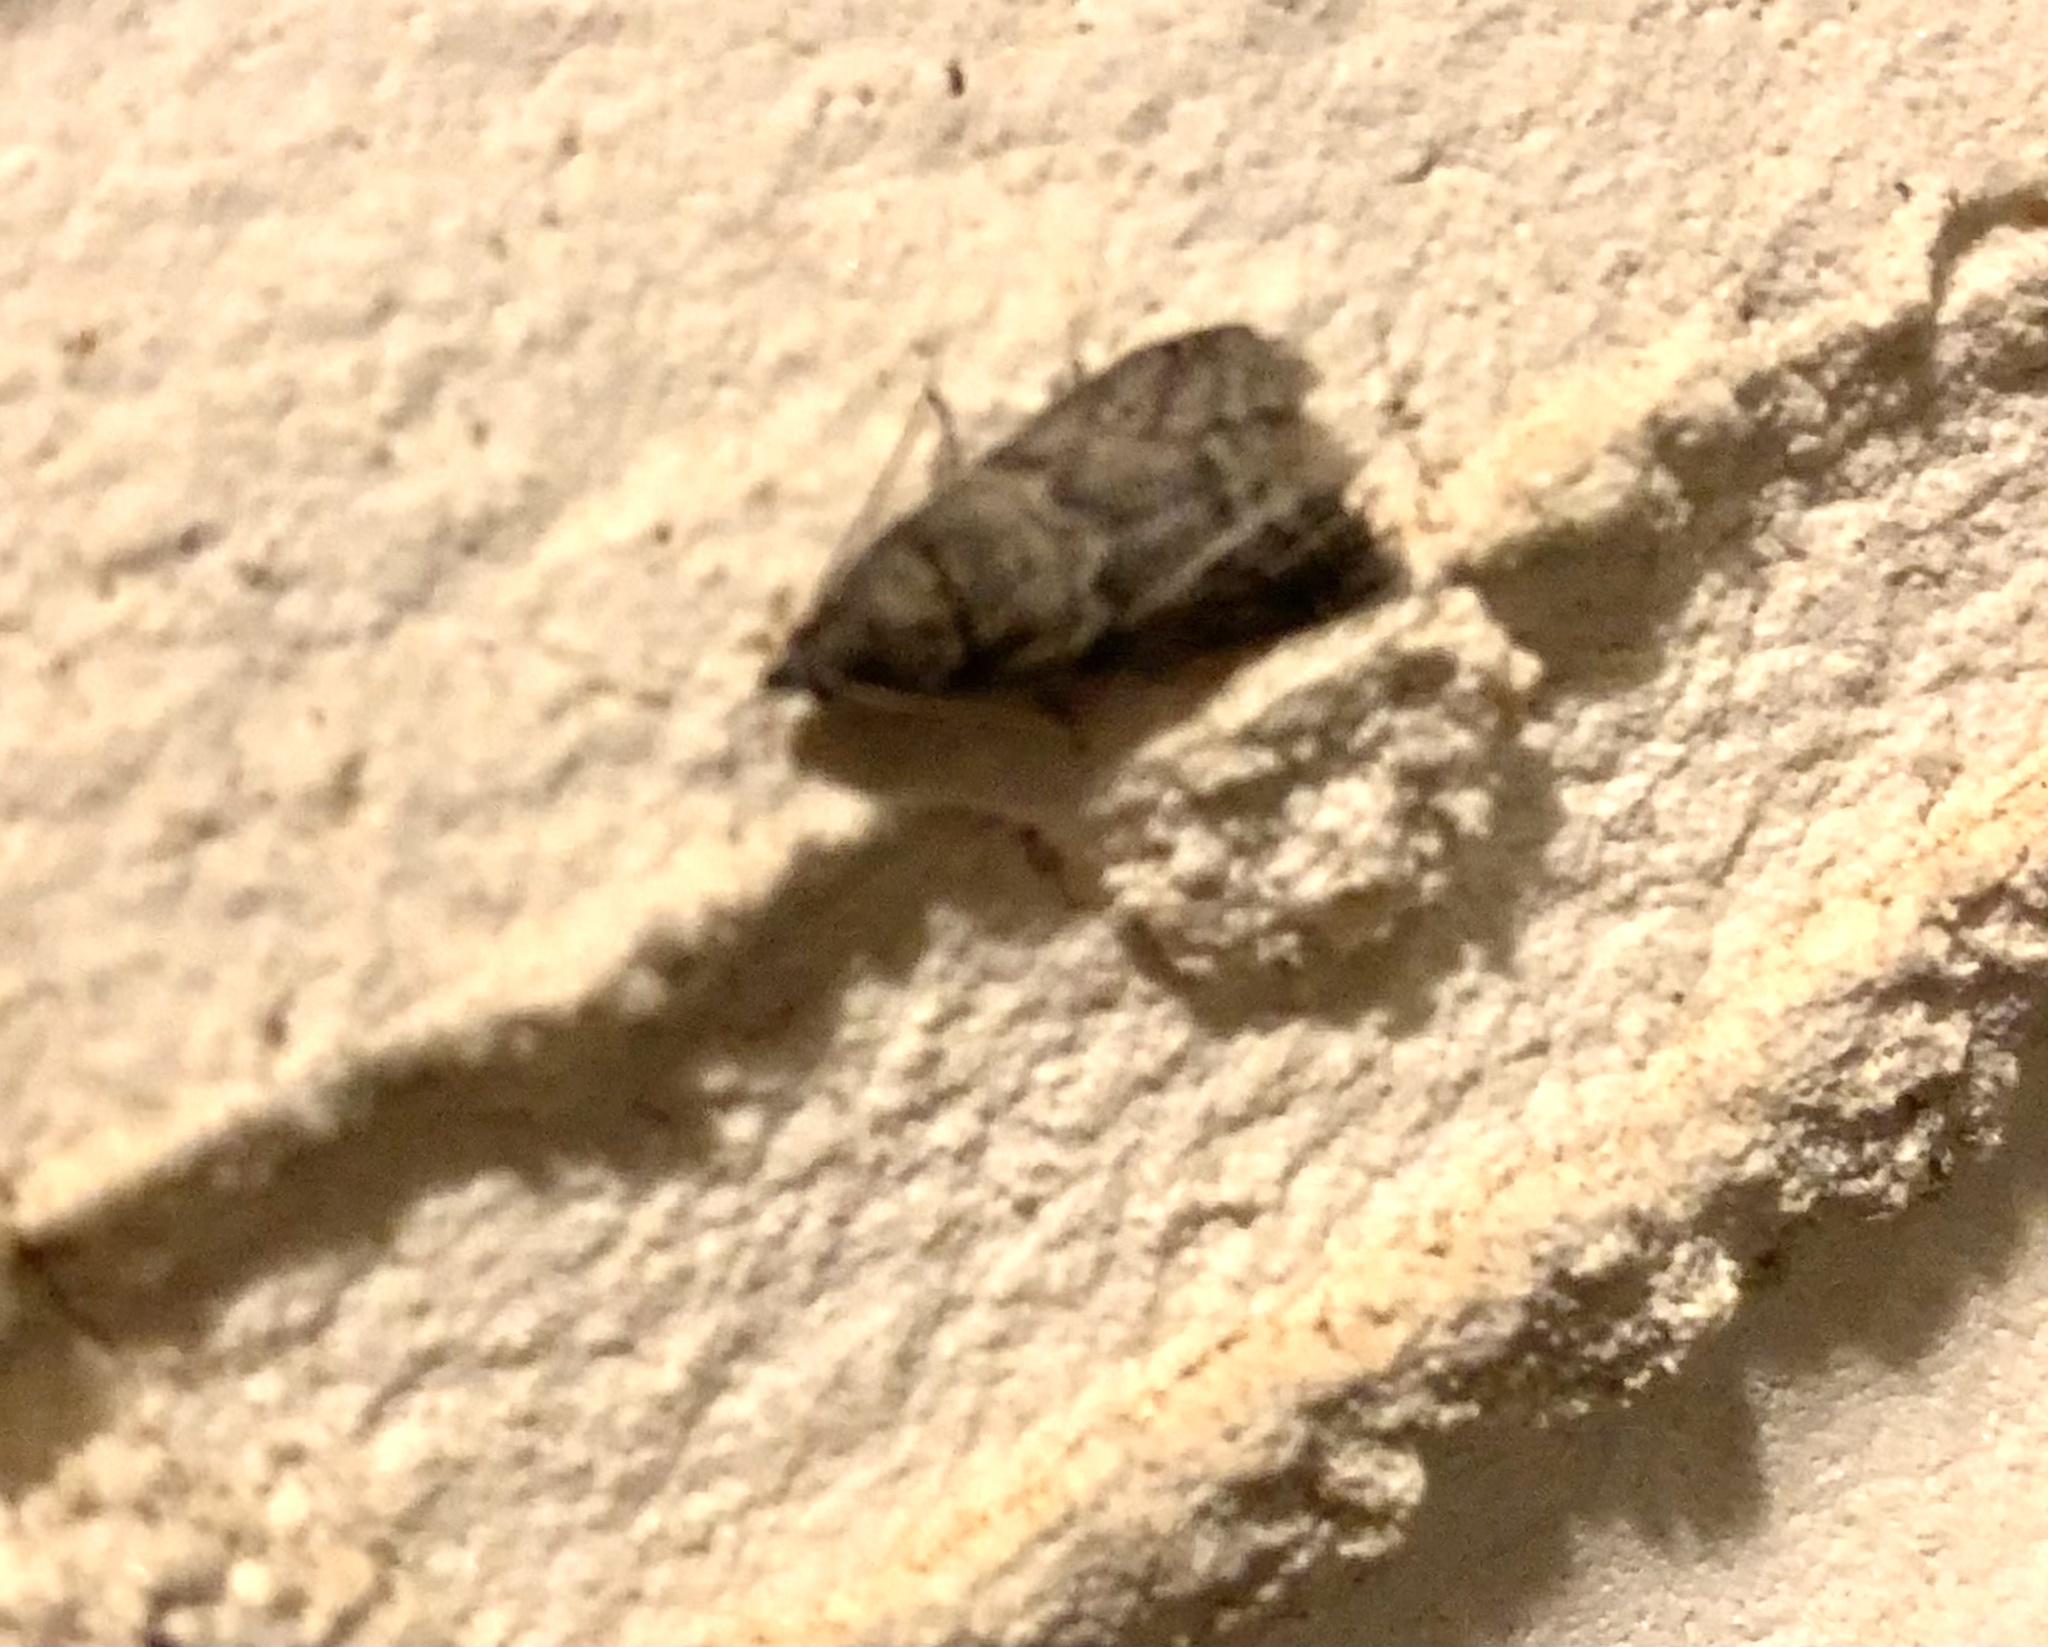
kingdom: Animalia
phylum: Arthropoda
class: Insecta
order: Lepidoptera
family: Pyralidae
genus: Ectomyelois
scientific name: Ectomyelois ceratoniae
